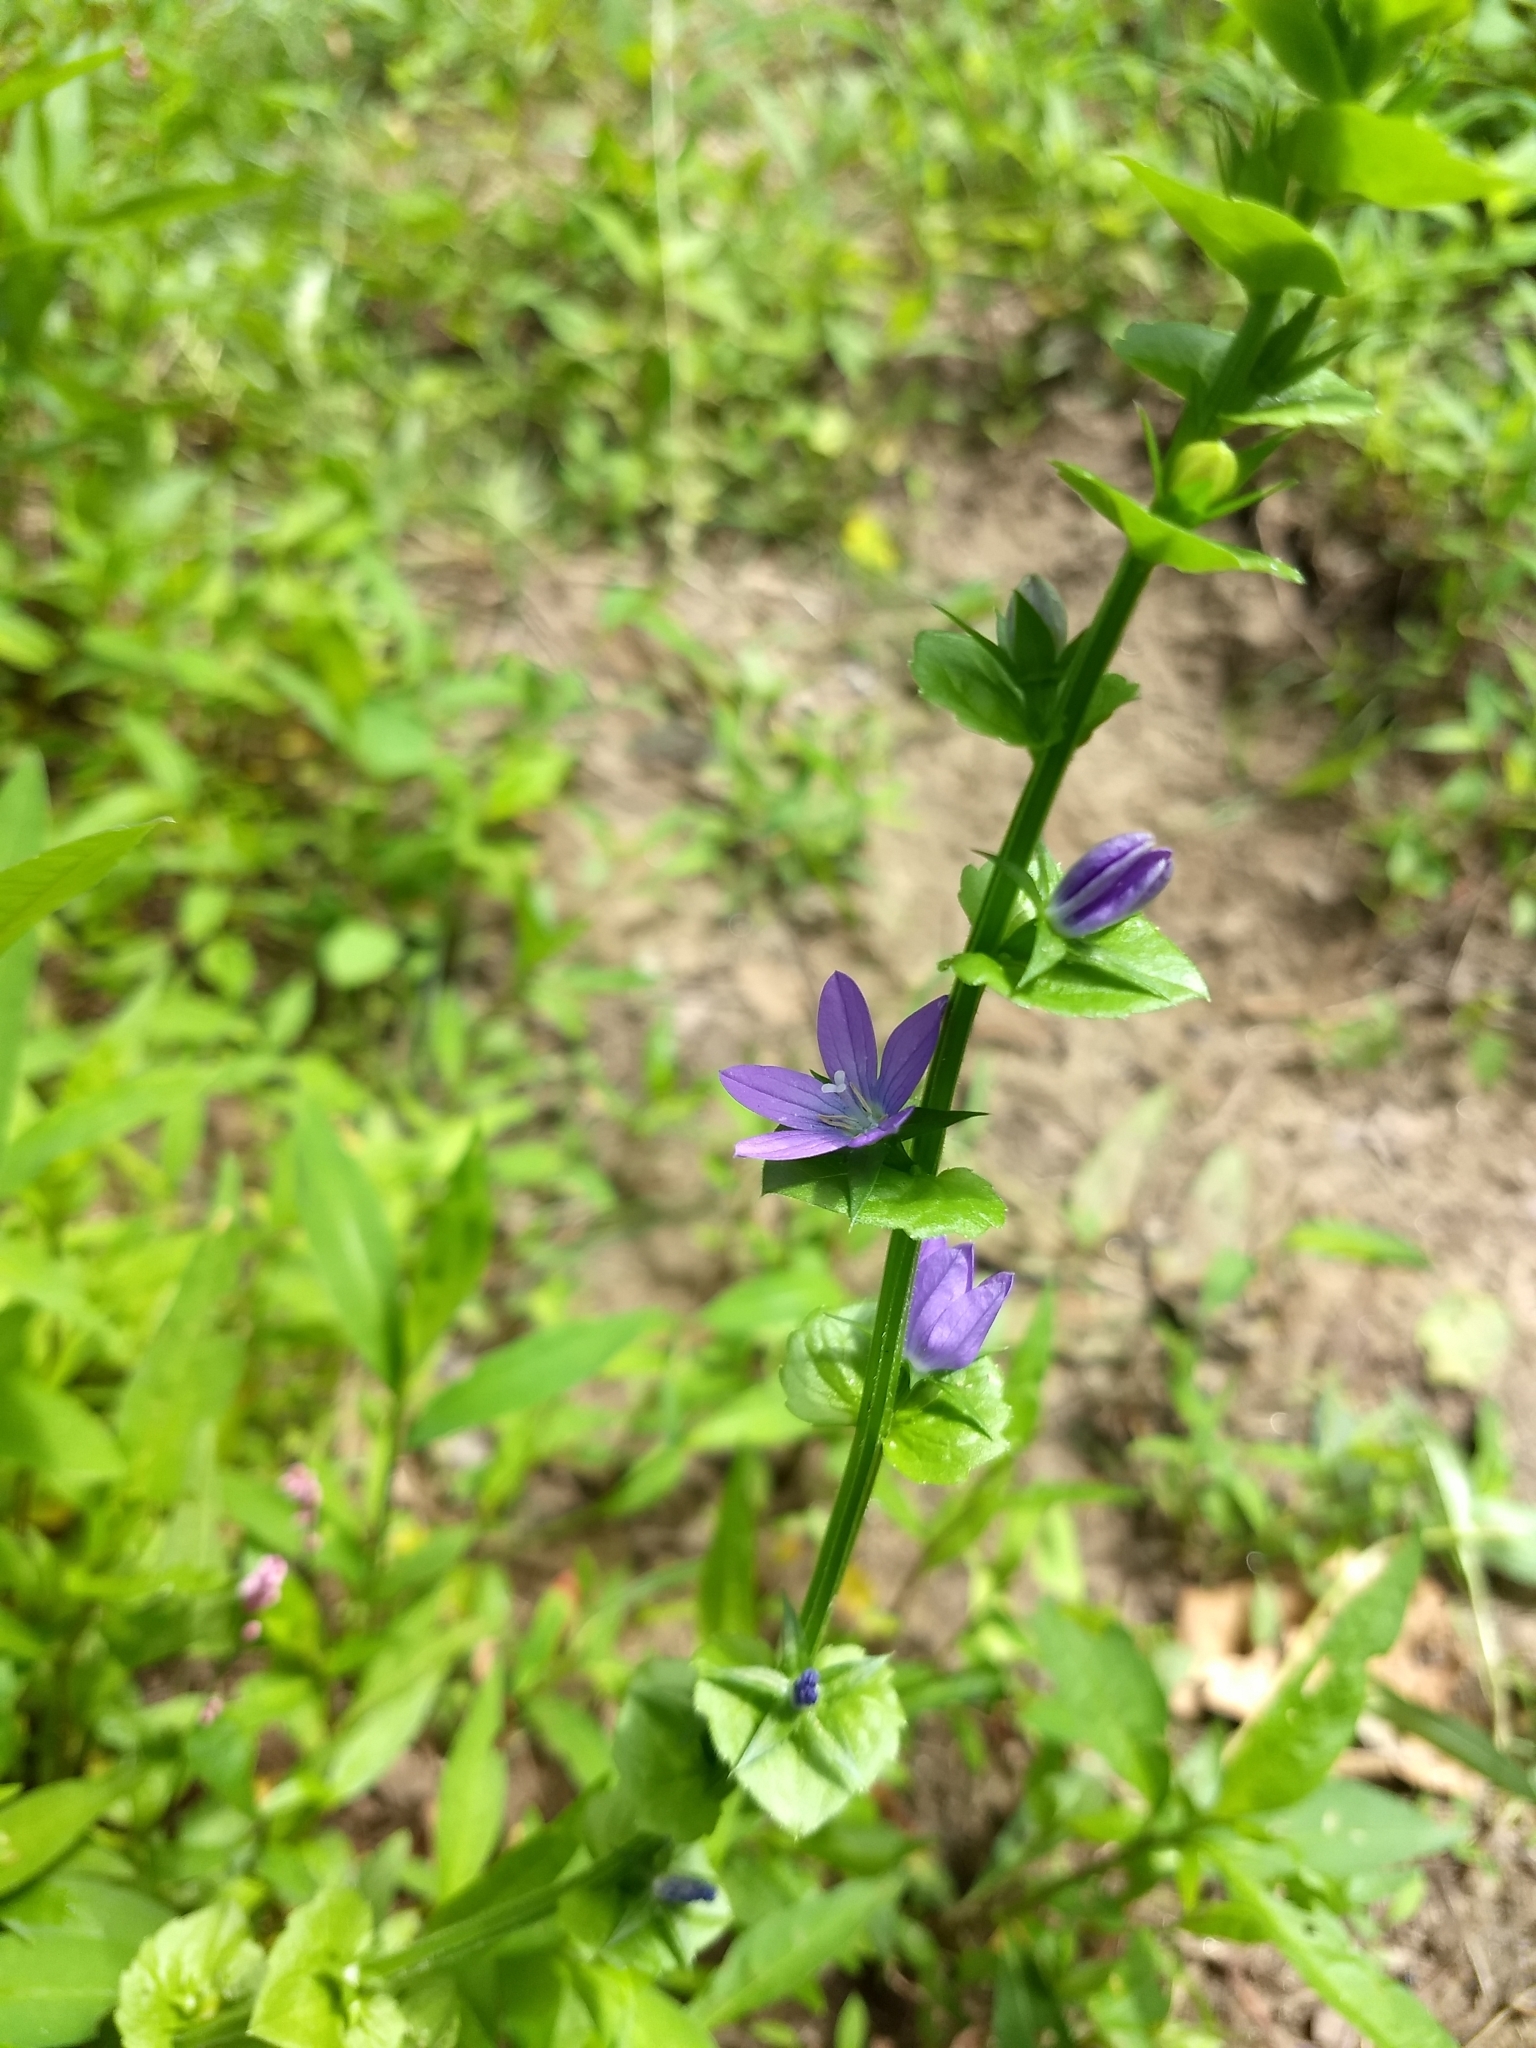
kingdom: Plantae
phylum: Tracheophyta
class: Magnoliopsida
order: Asterales
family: Campanulaceae
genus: Triodanis
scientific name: Triodanis perfoliata
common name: Clasping venus' looking-glass
